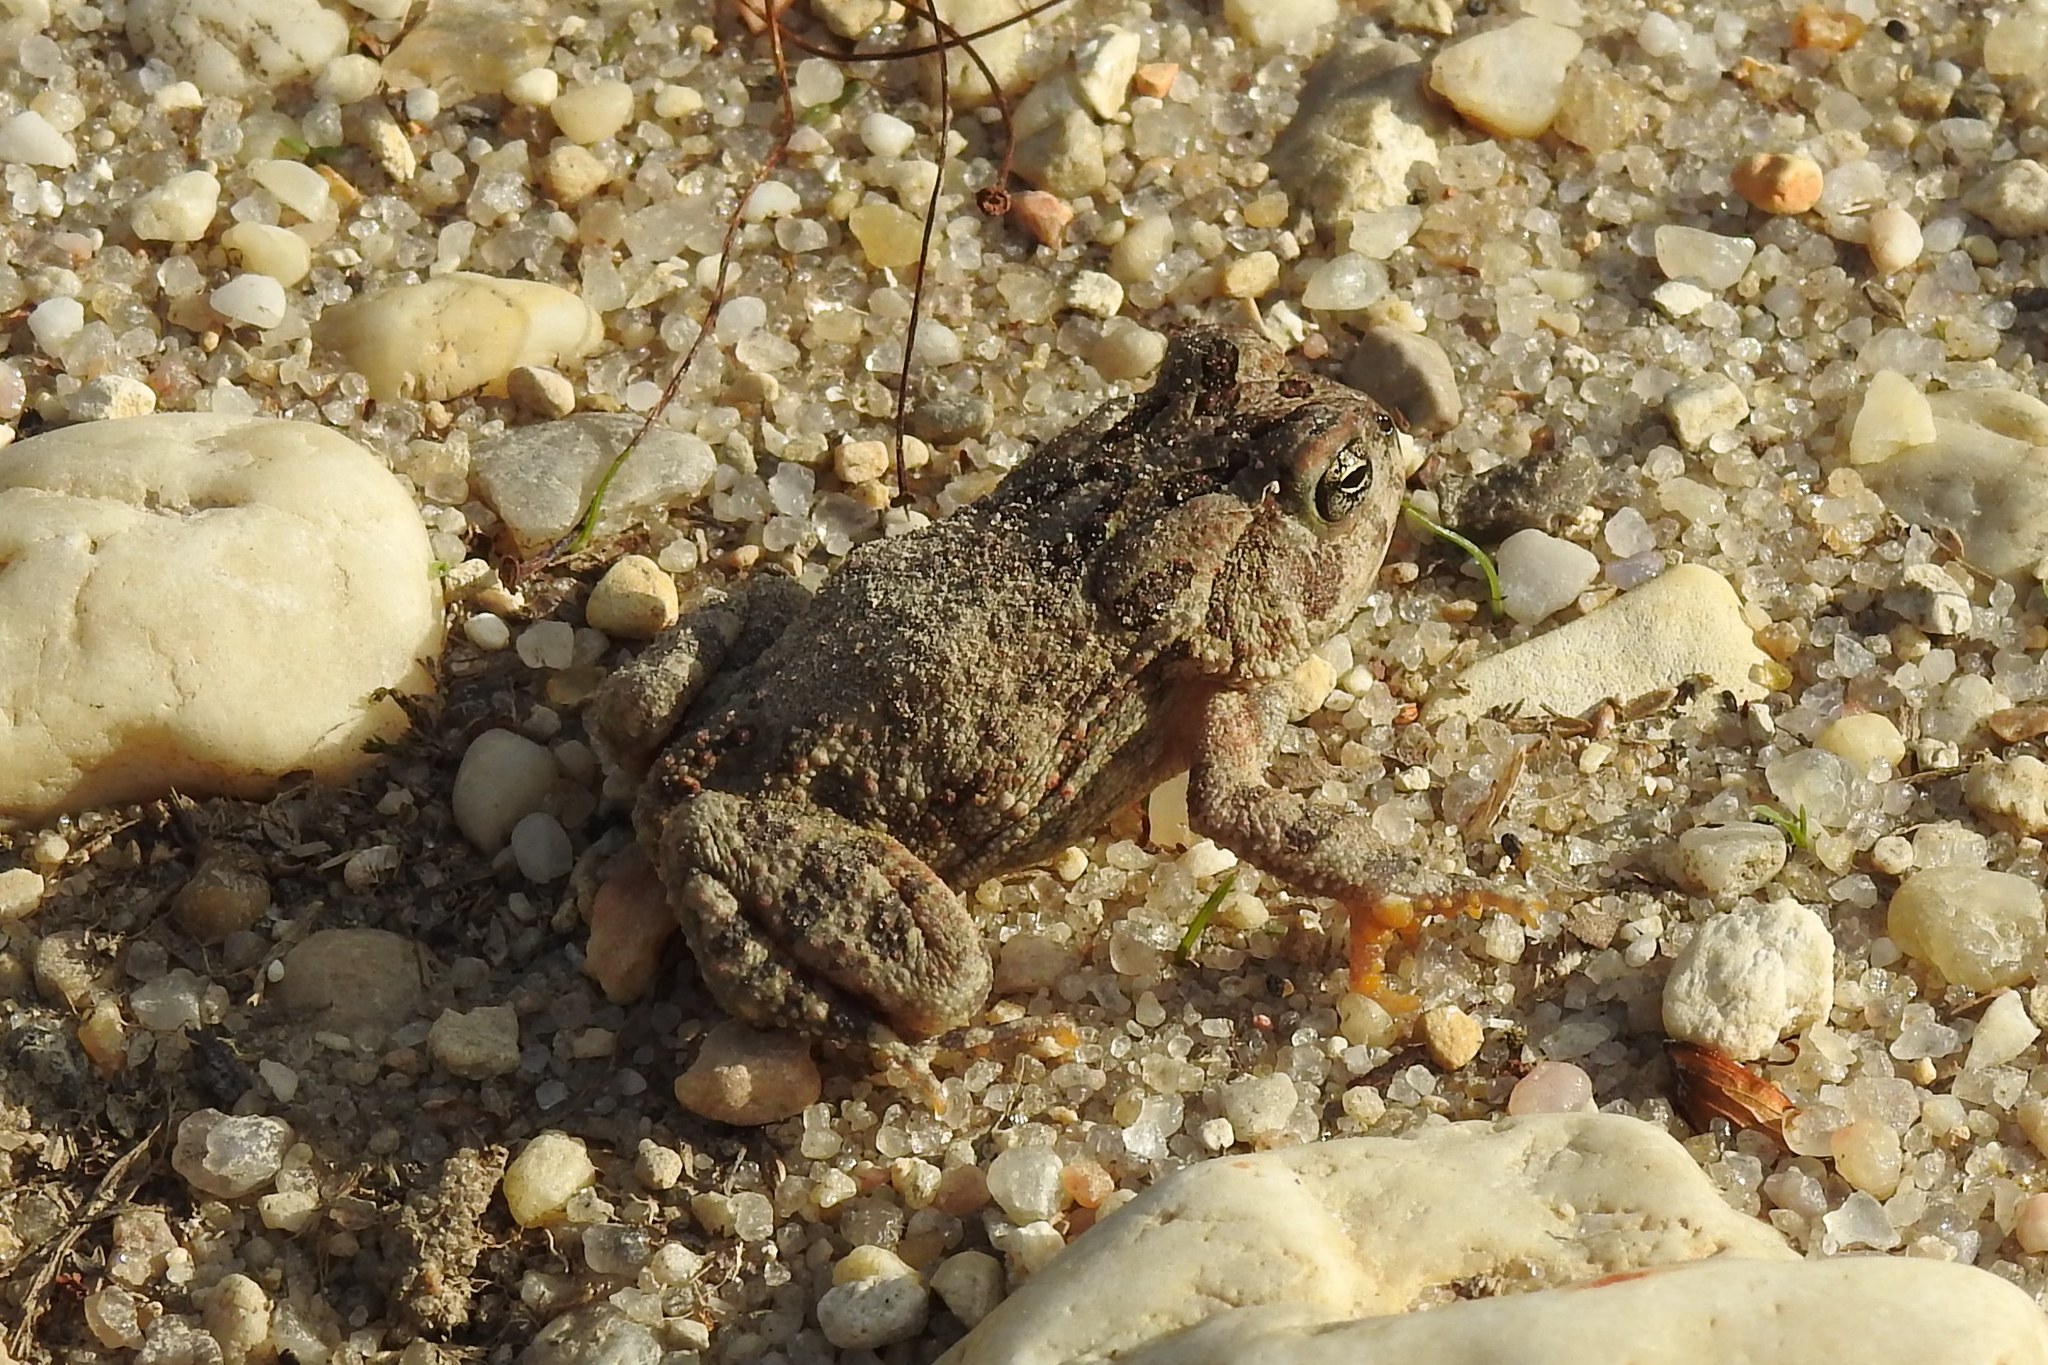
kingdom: Animalia
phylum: Chordata
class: Amphibia
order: Anura
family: Bufonidae
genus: Anaxyrus
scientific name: Anaxyrus fowleri
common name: Fowler's toad
